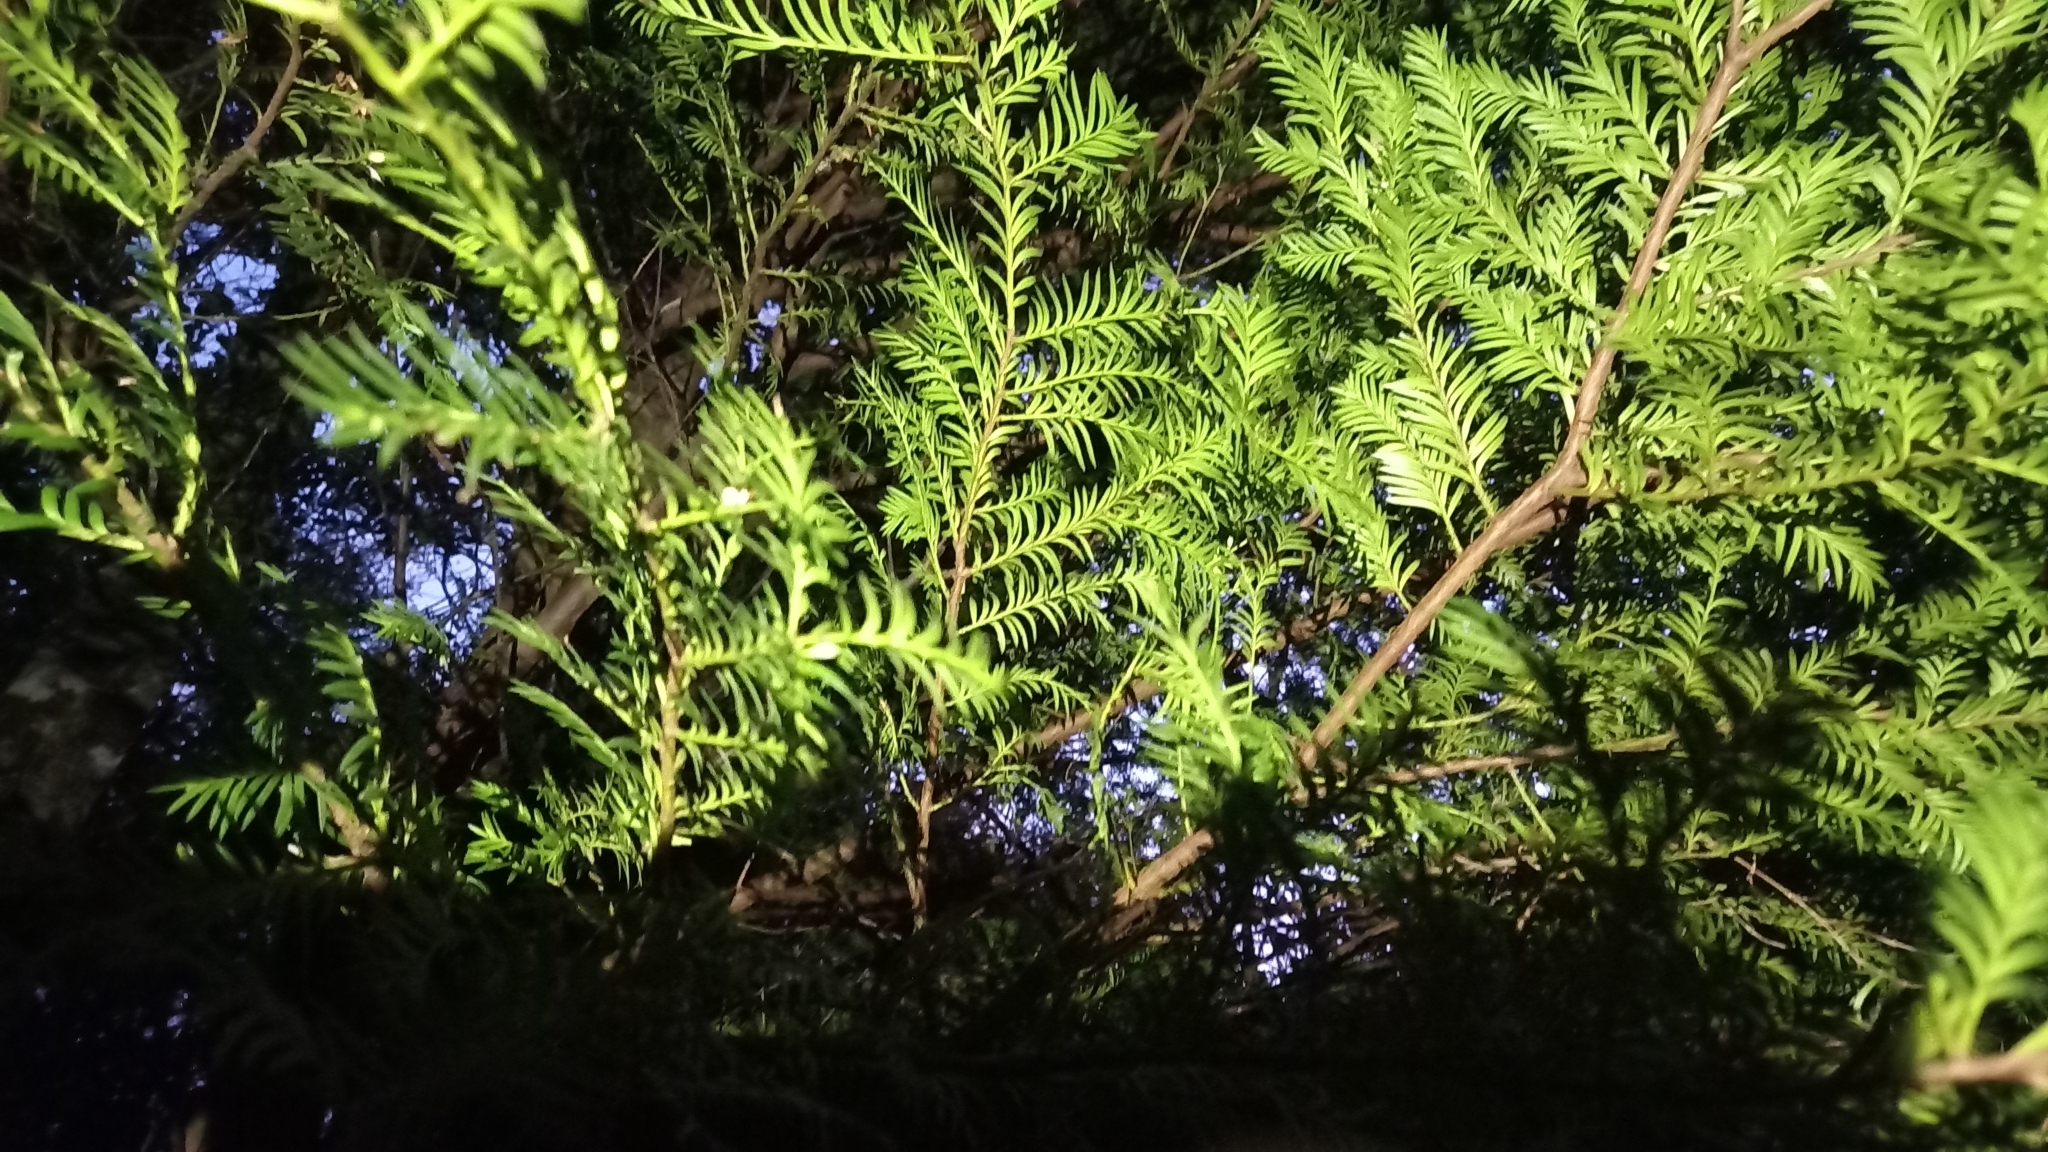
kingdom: Plantae
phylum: Tracheophyta
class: Pinopsida
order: Pinales
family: Podocarpaceae
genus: Prumnopitys
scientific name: Prumnopitys ferruginea
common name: Brown pine
